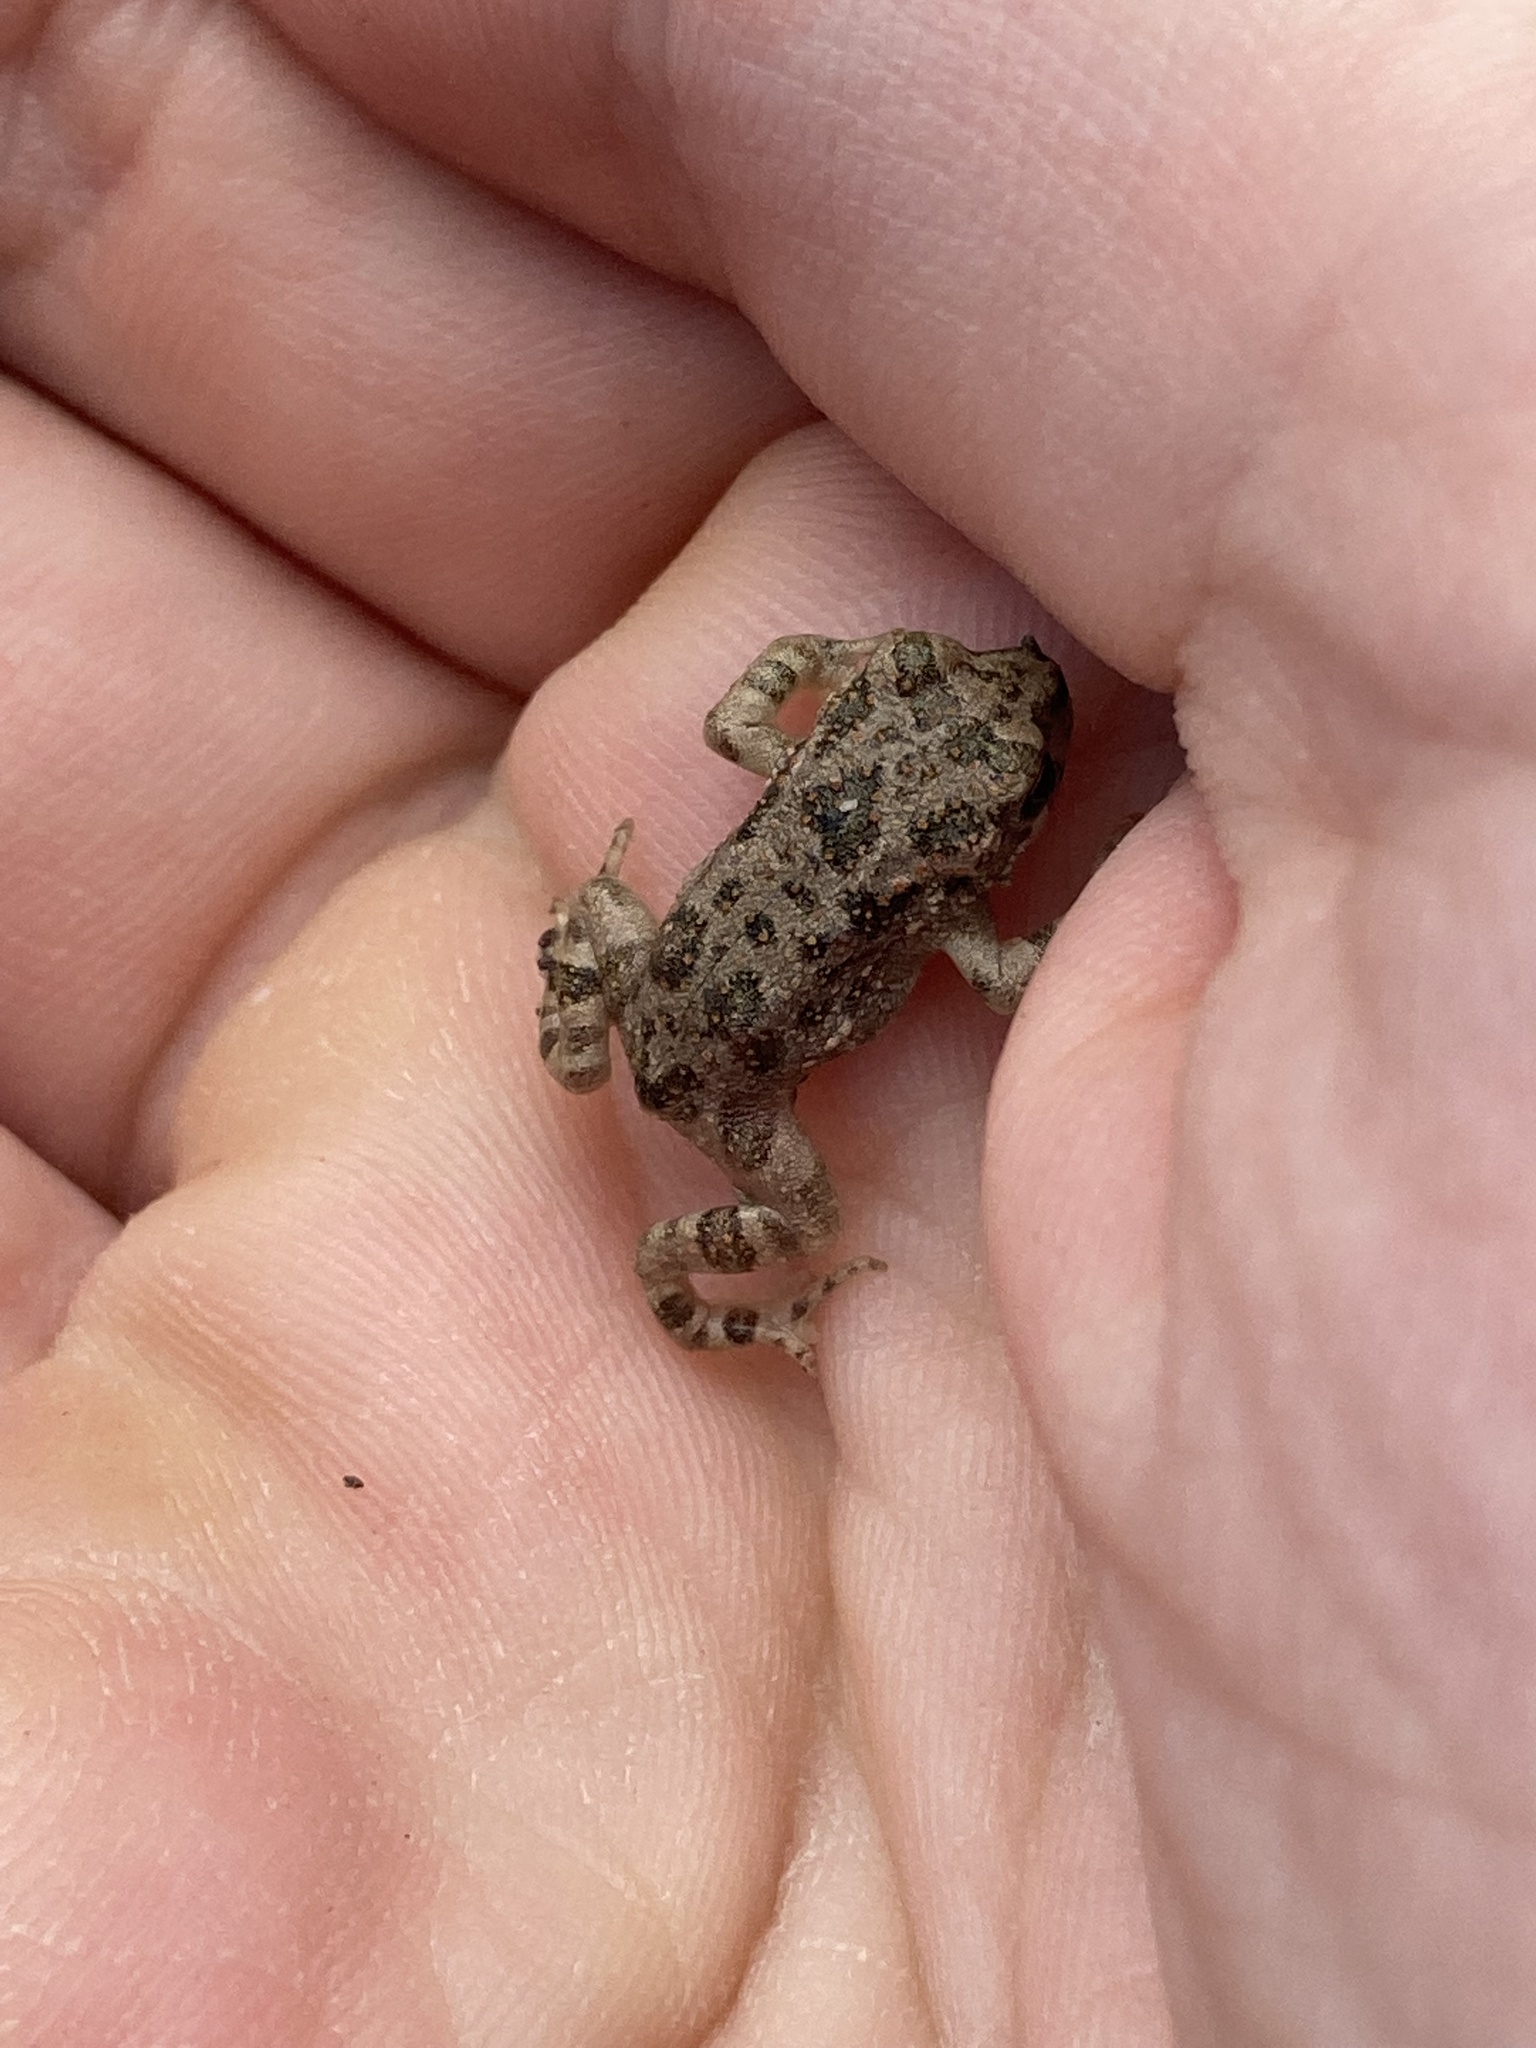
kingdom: Animalia
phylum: Chordata
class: Amphibia
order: Anura
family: Bufonidae
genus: Bufotes
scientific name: Bufotes viridis
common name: European green toad
